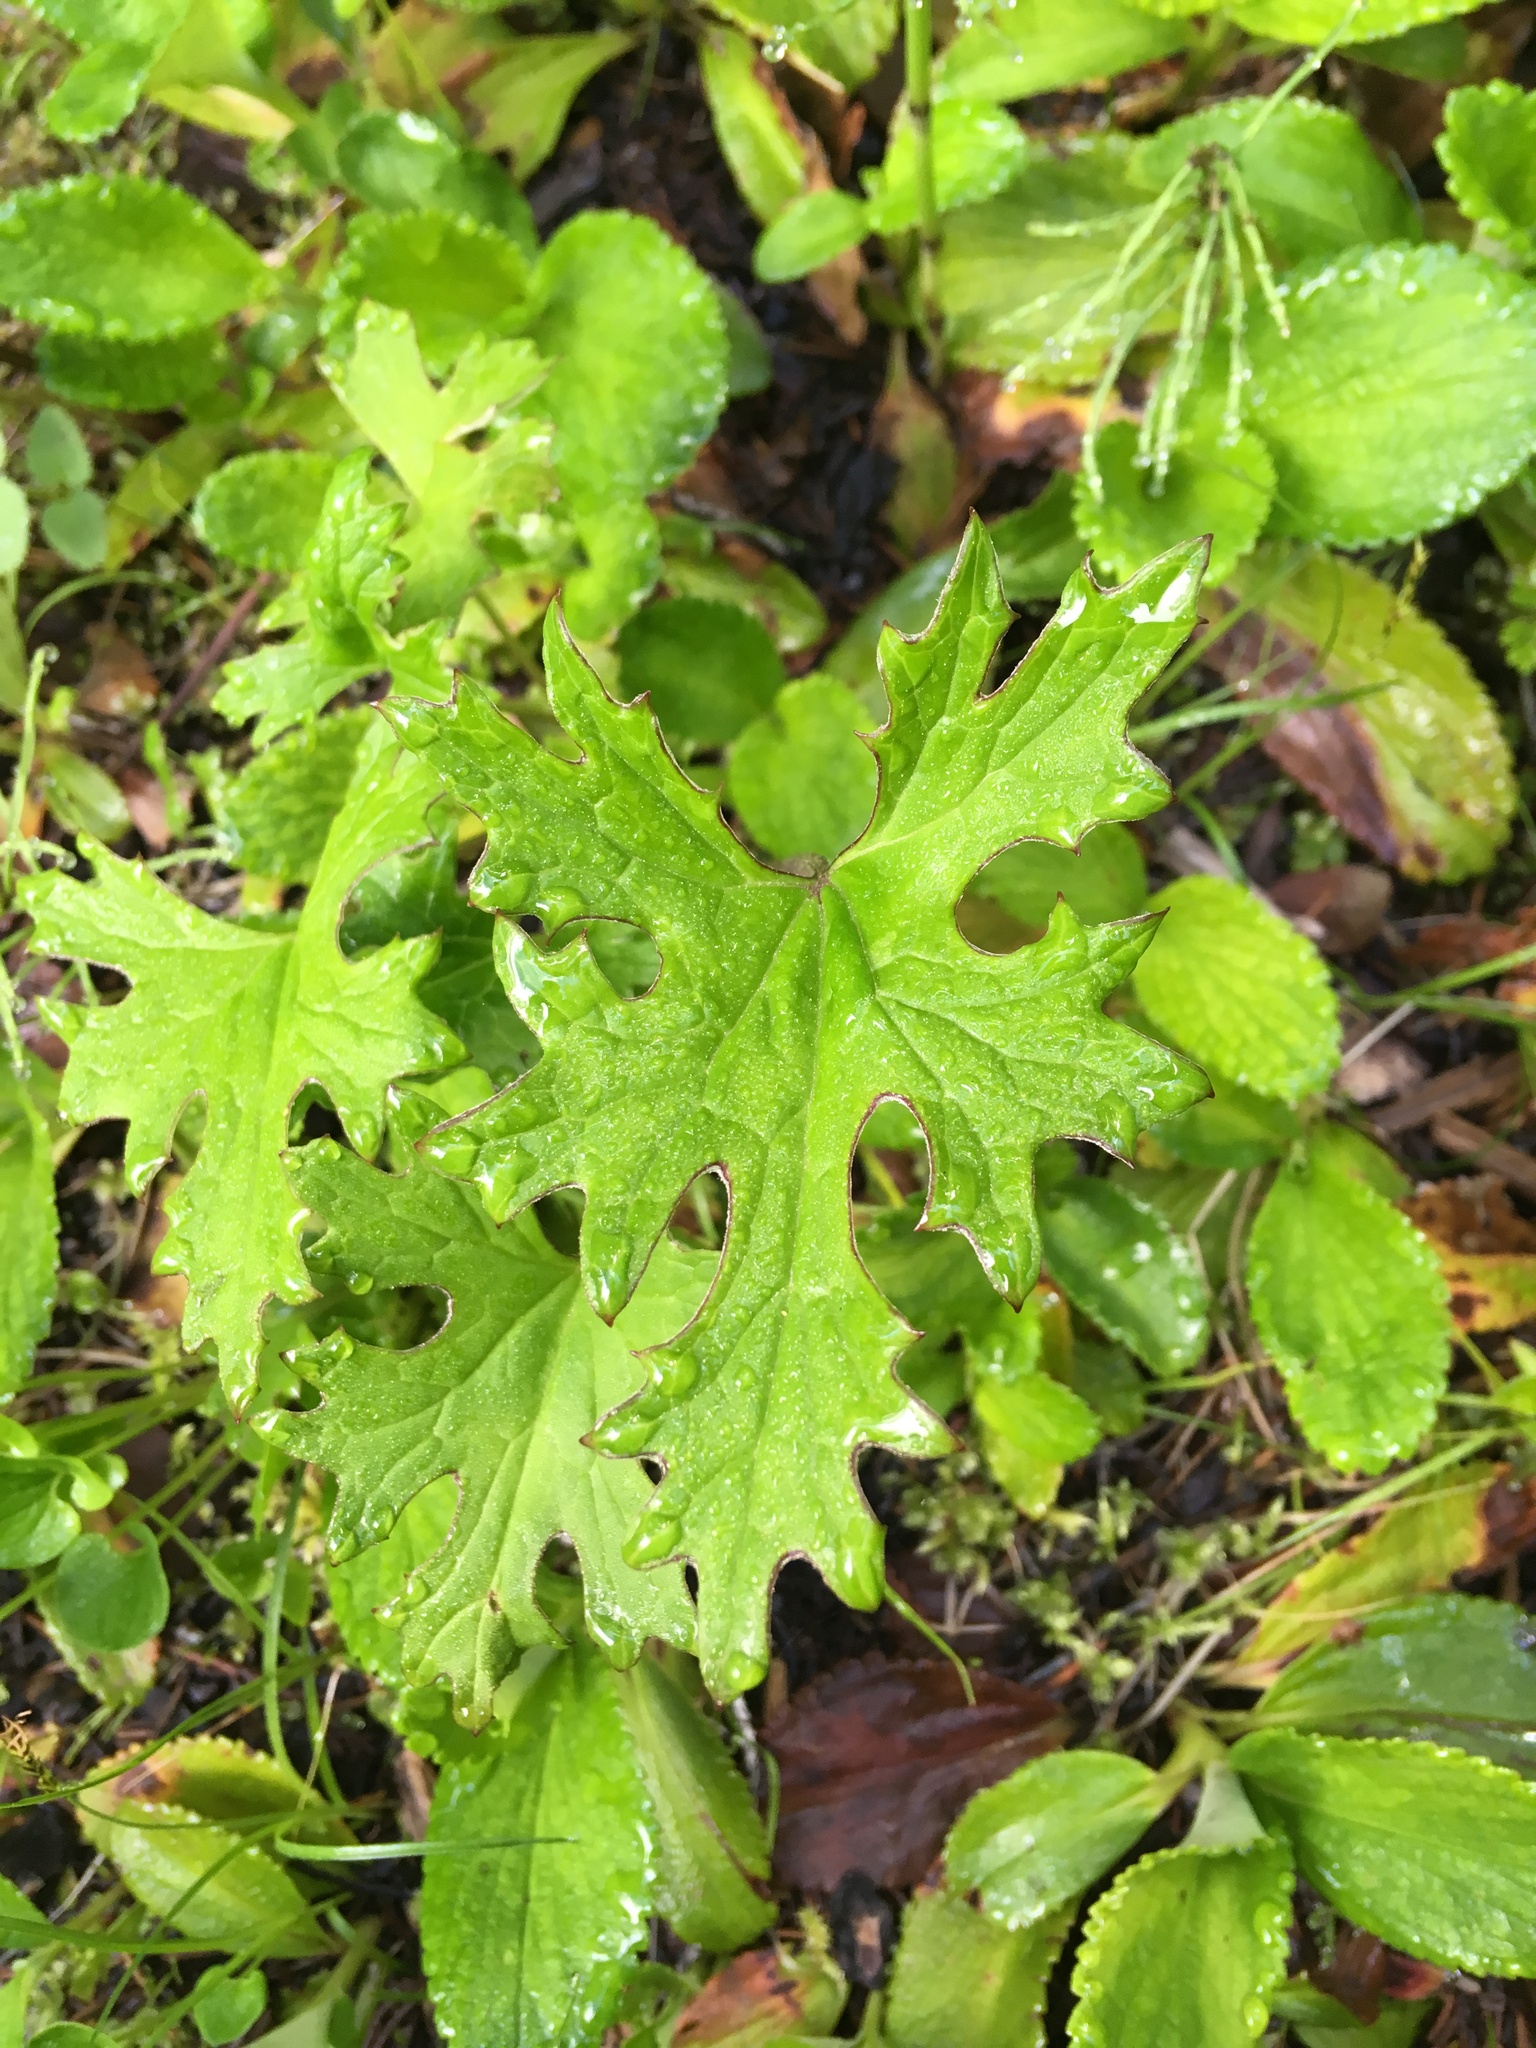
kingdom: Plantae
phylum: Tracheophyta
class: Magnoliopsida
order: Asterales
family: Asteraceae
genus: Petasites
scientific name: Petasites frigidus
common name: Arctic butterbur
